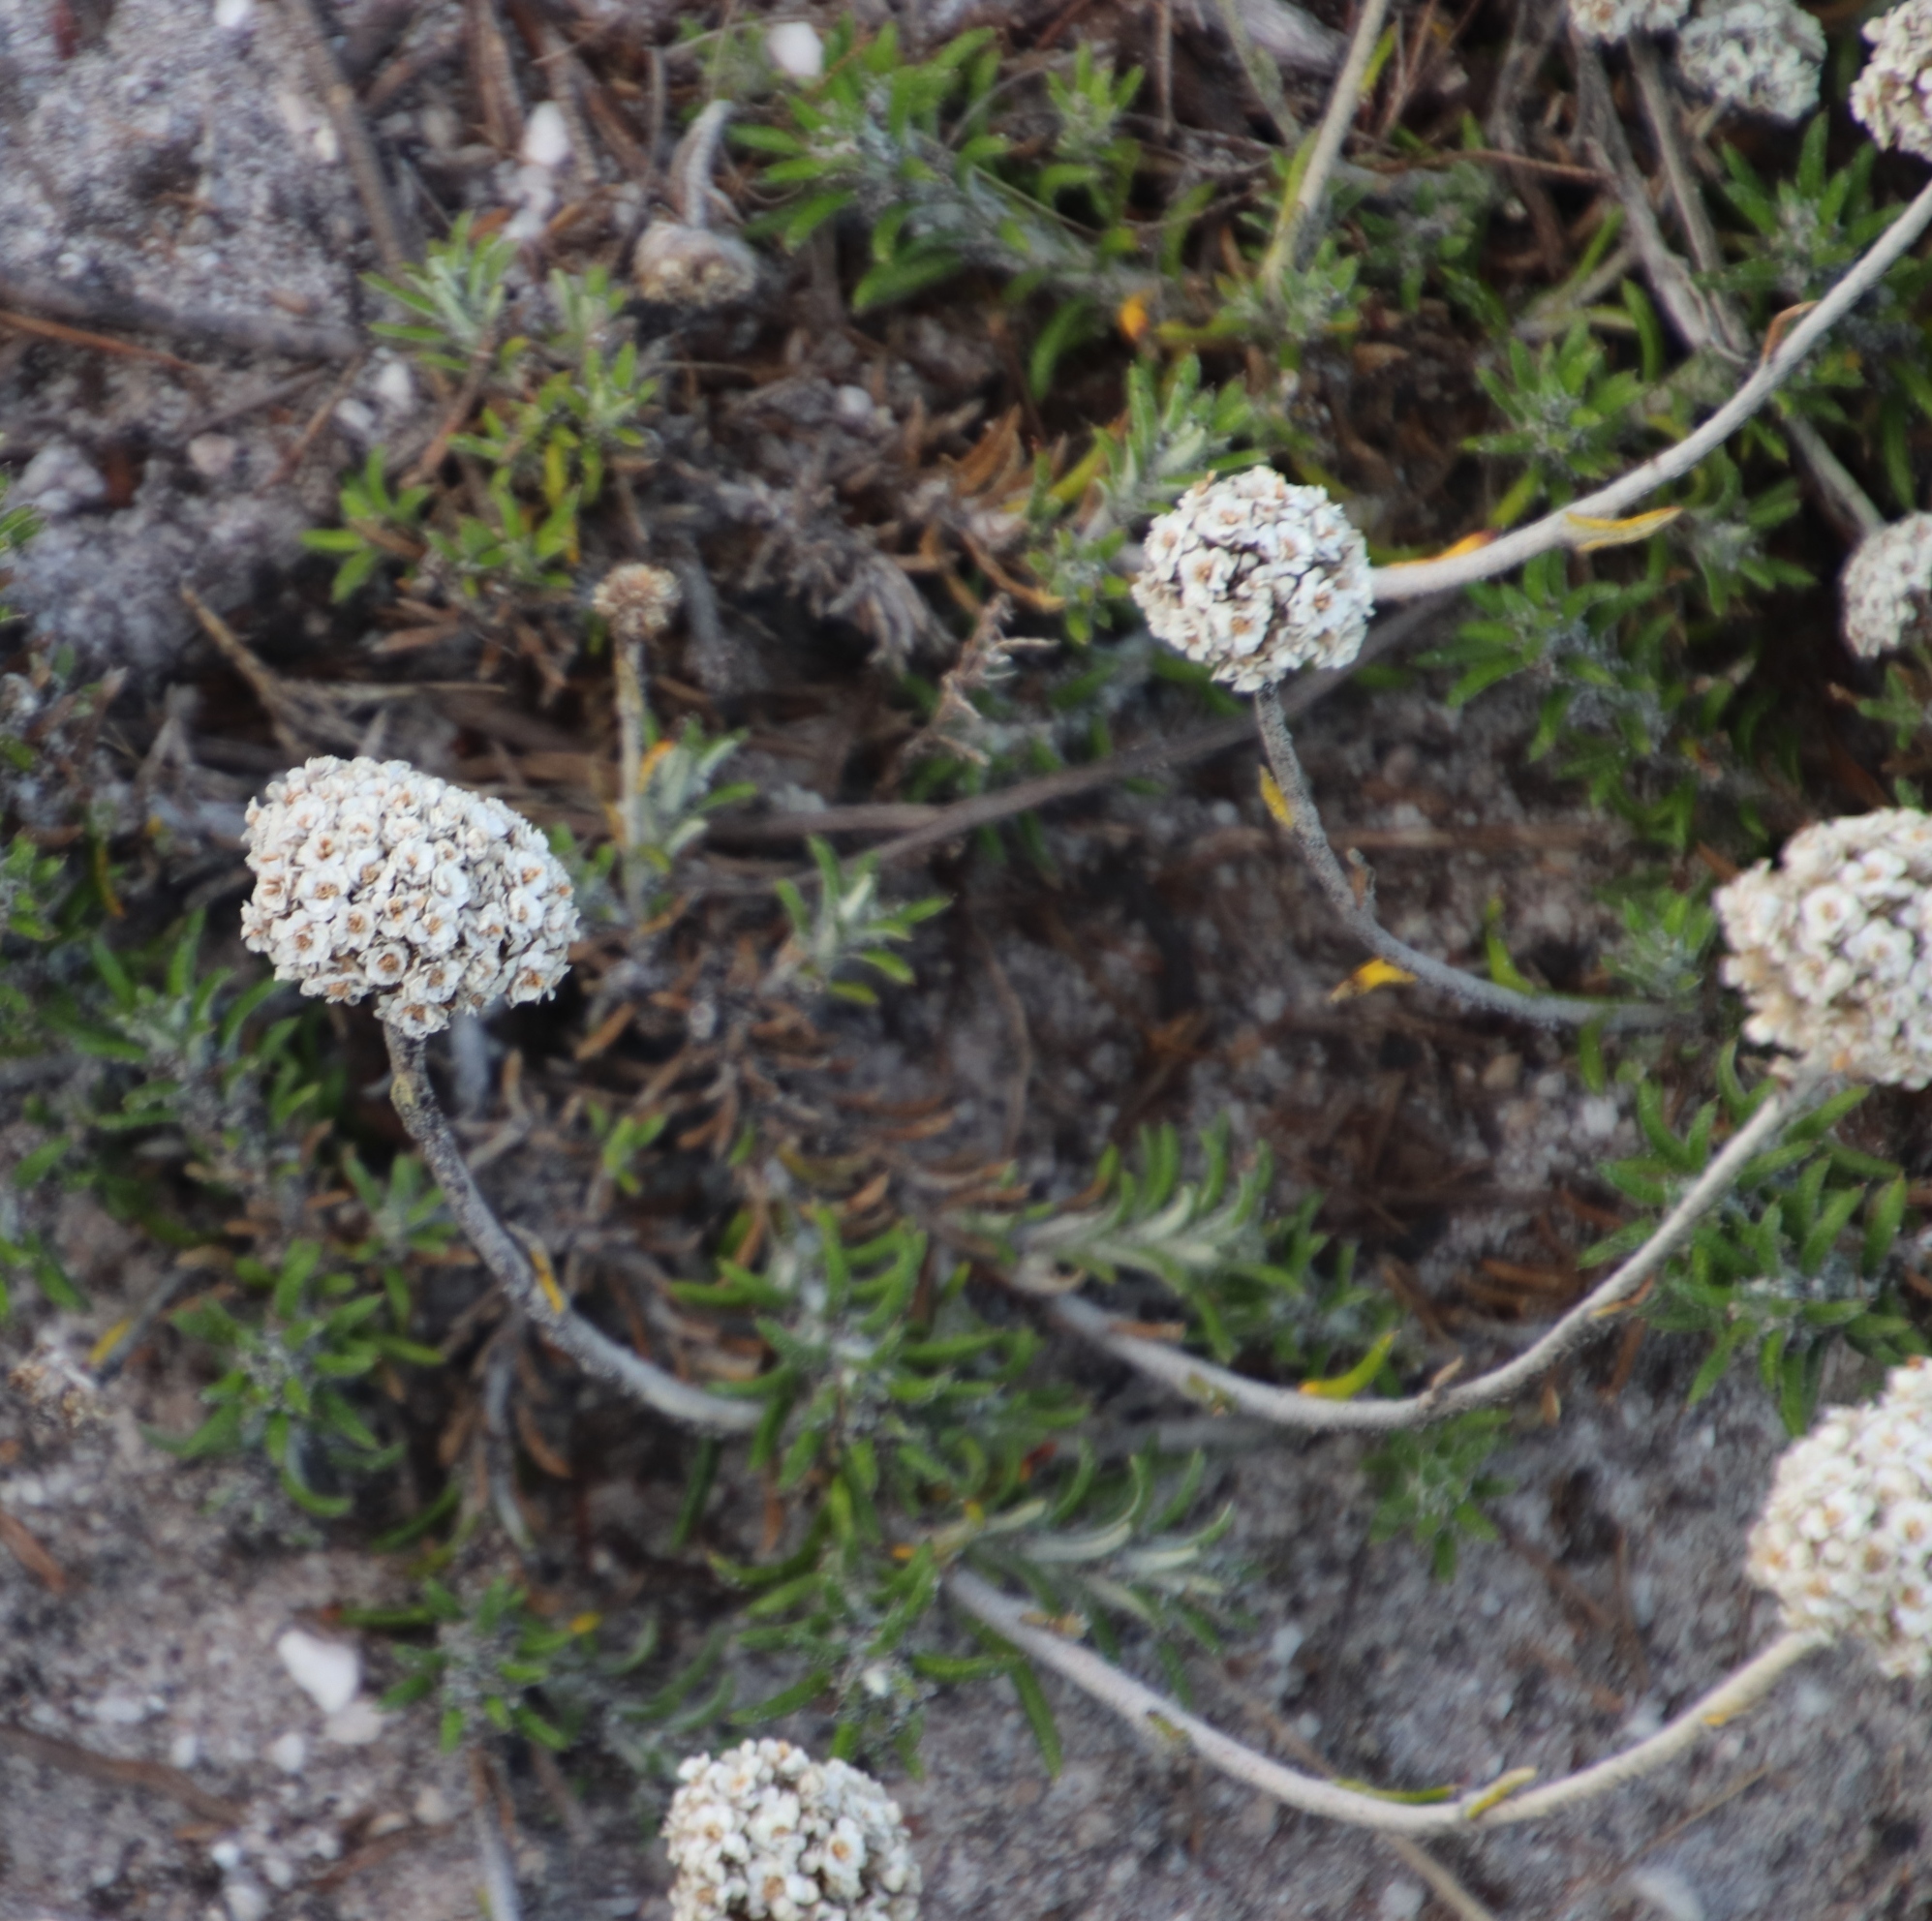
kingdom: Plantae
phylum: Tracheophyta
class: Magnoliopsida
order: Asterales
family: Asteraceae
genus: Anaxeton
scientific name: Anaxeton asperum
